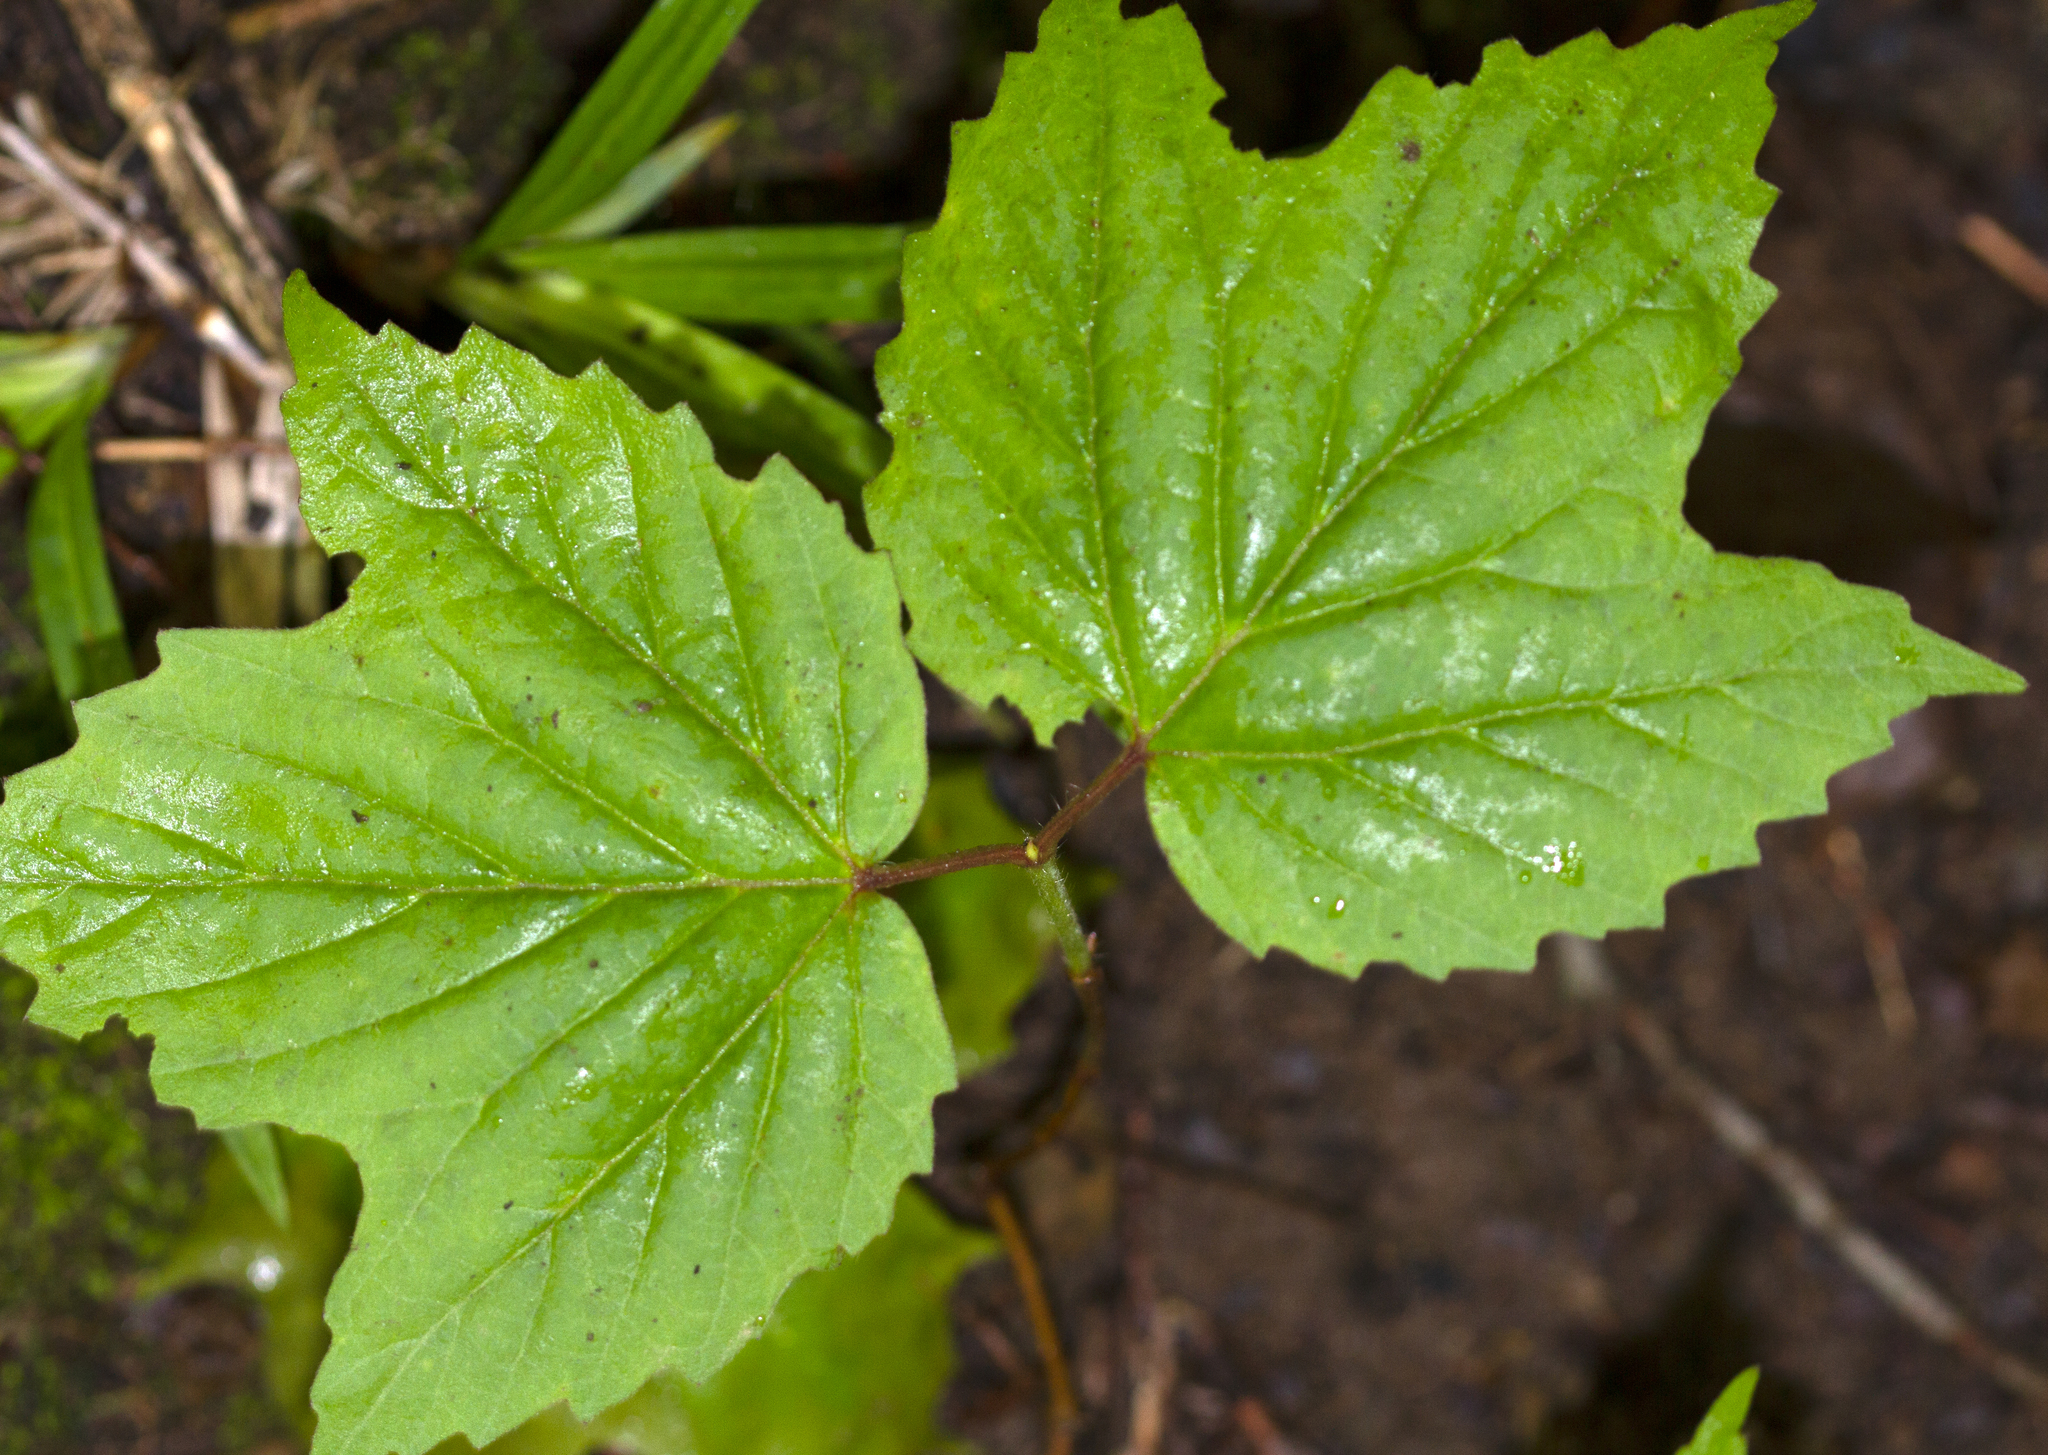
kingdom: Plantae
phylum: Tracheophyta
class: Magnoliopsida
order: Dipsacales
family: Viburnaceae
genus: Viburnum
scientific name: Viburnum acerifolium
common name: Dockmackie
